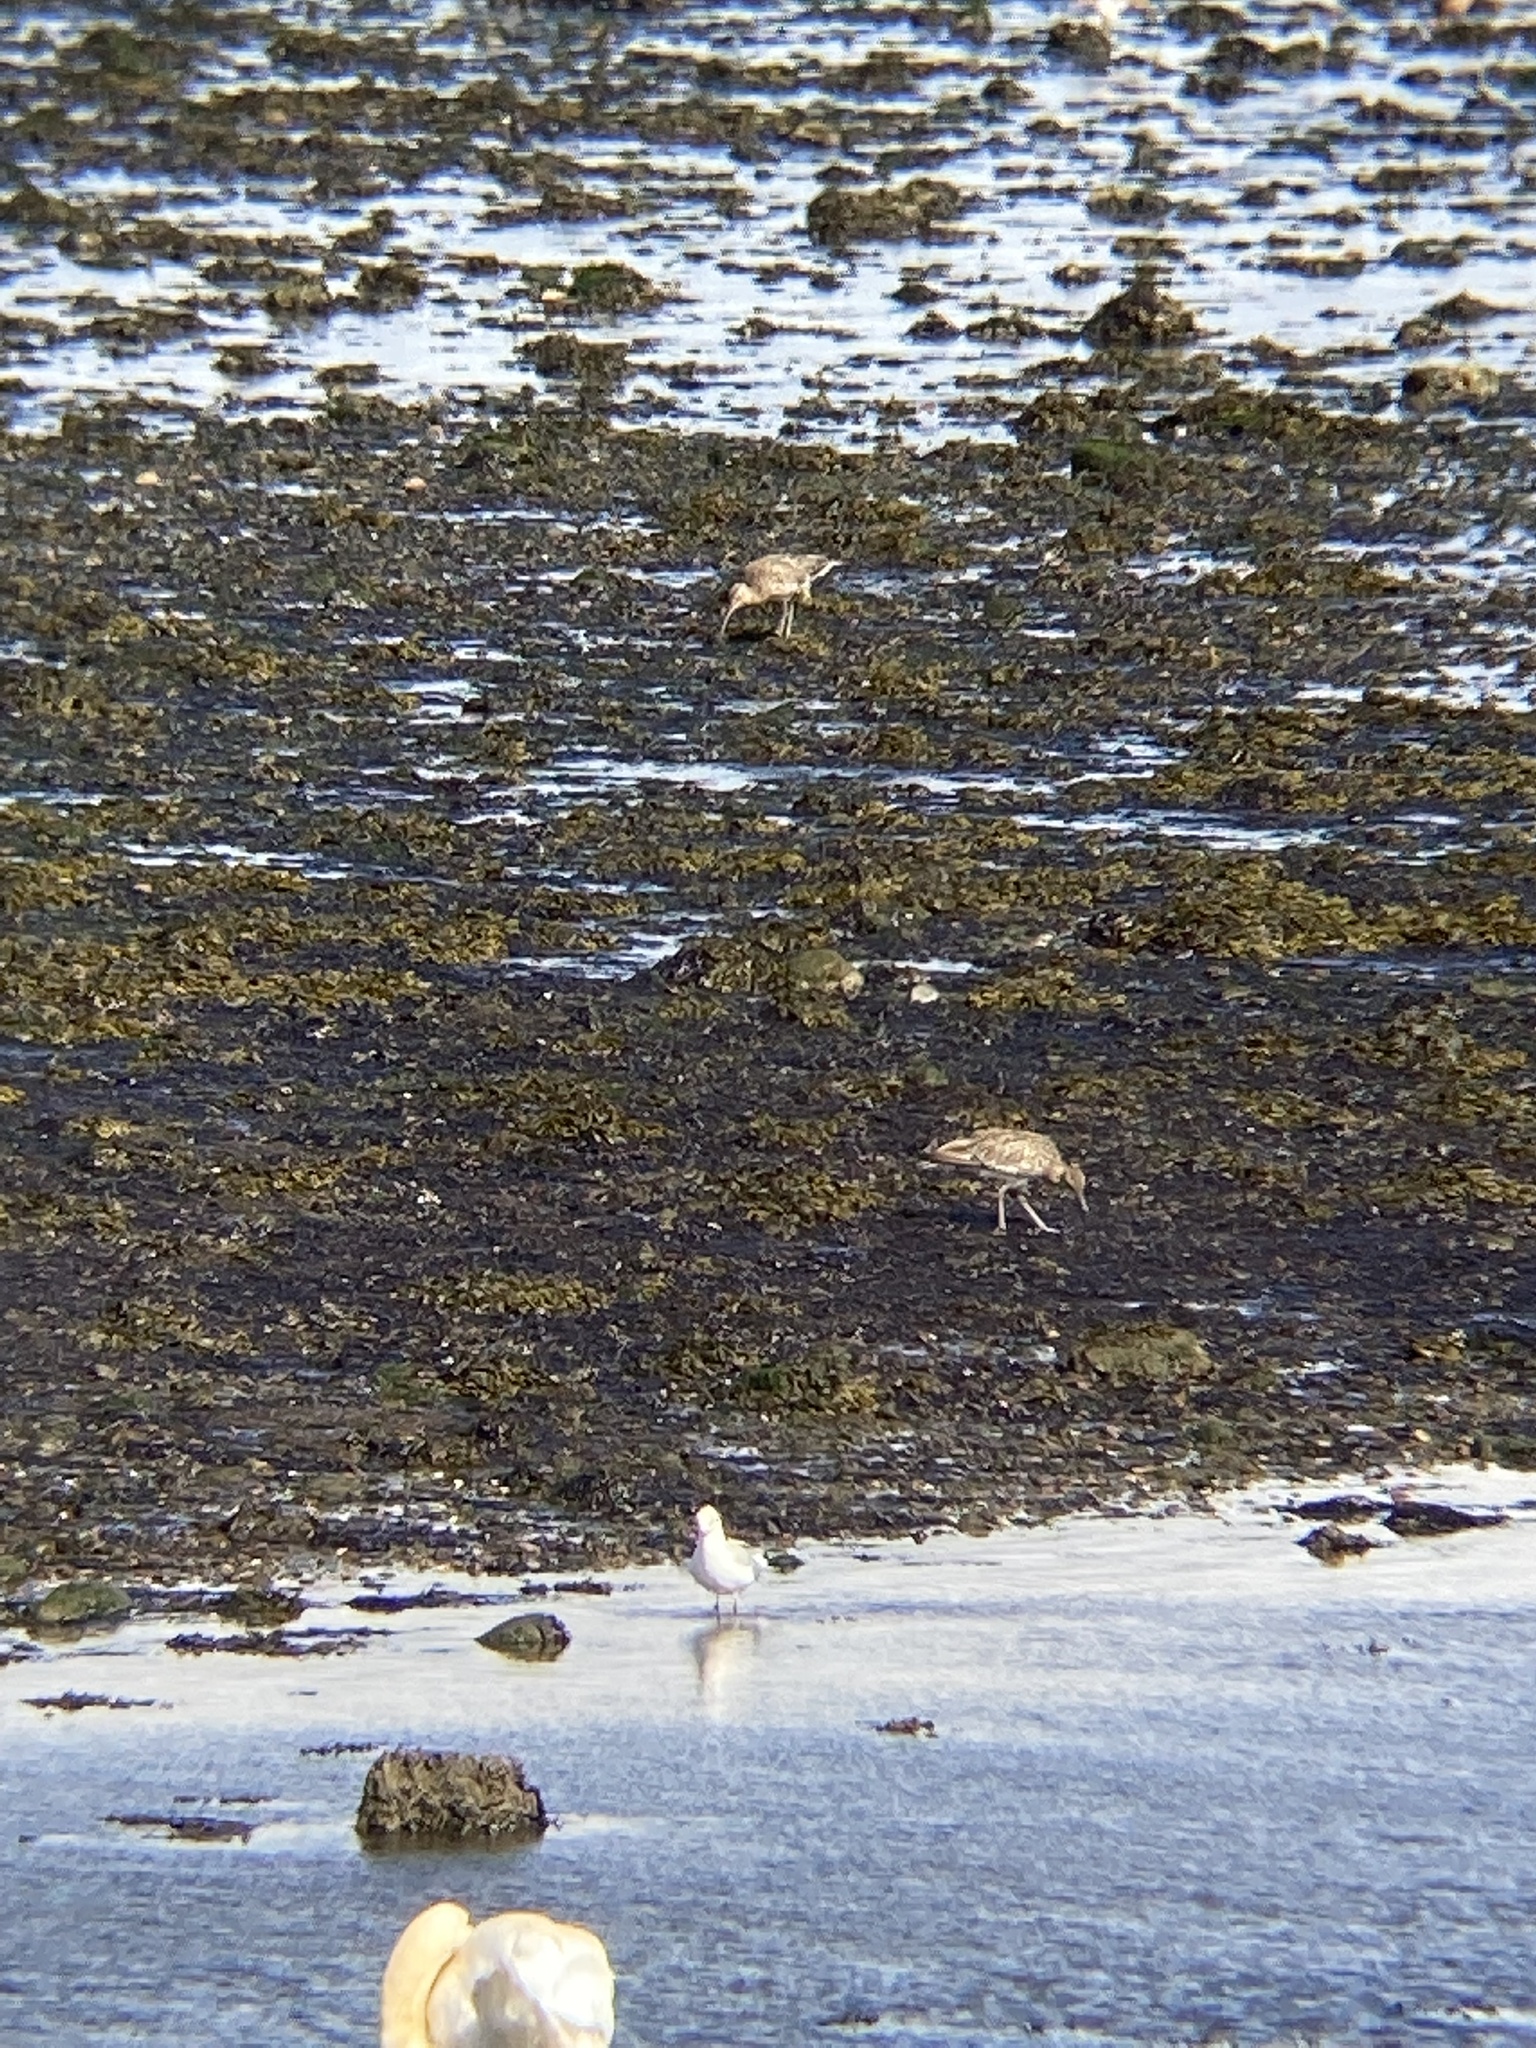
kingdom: Animalia
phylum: Chordata
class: Aves
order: Charadriiformes
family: Scolopacidae
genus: Numenius
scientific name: Numenius phaeopus
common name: Whimbrel
